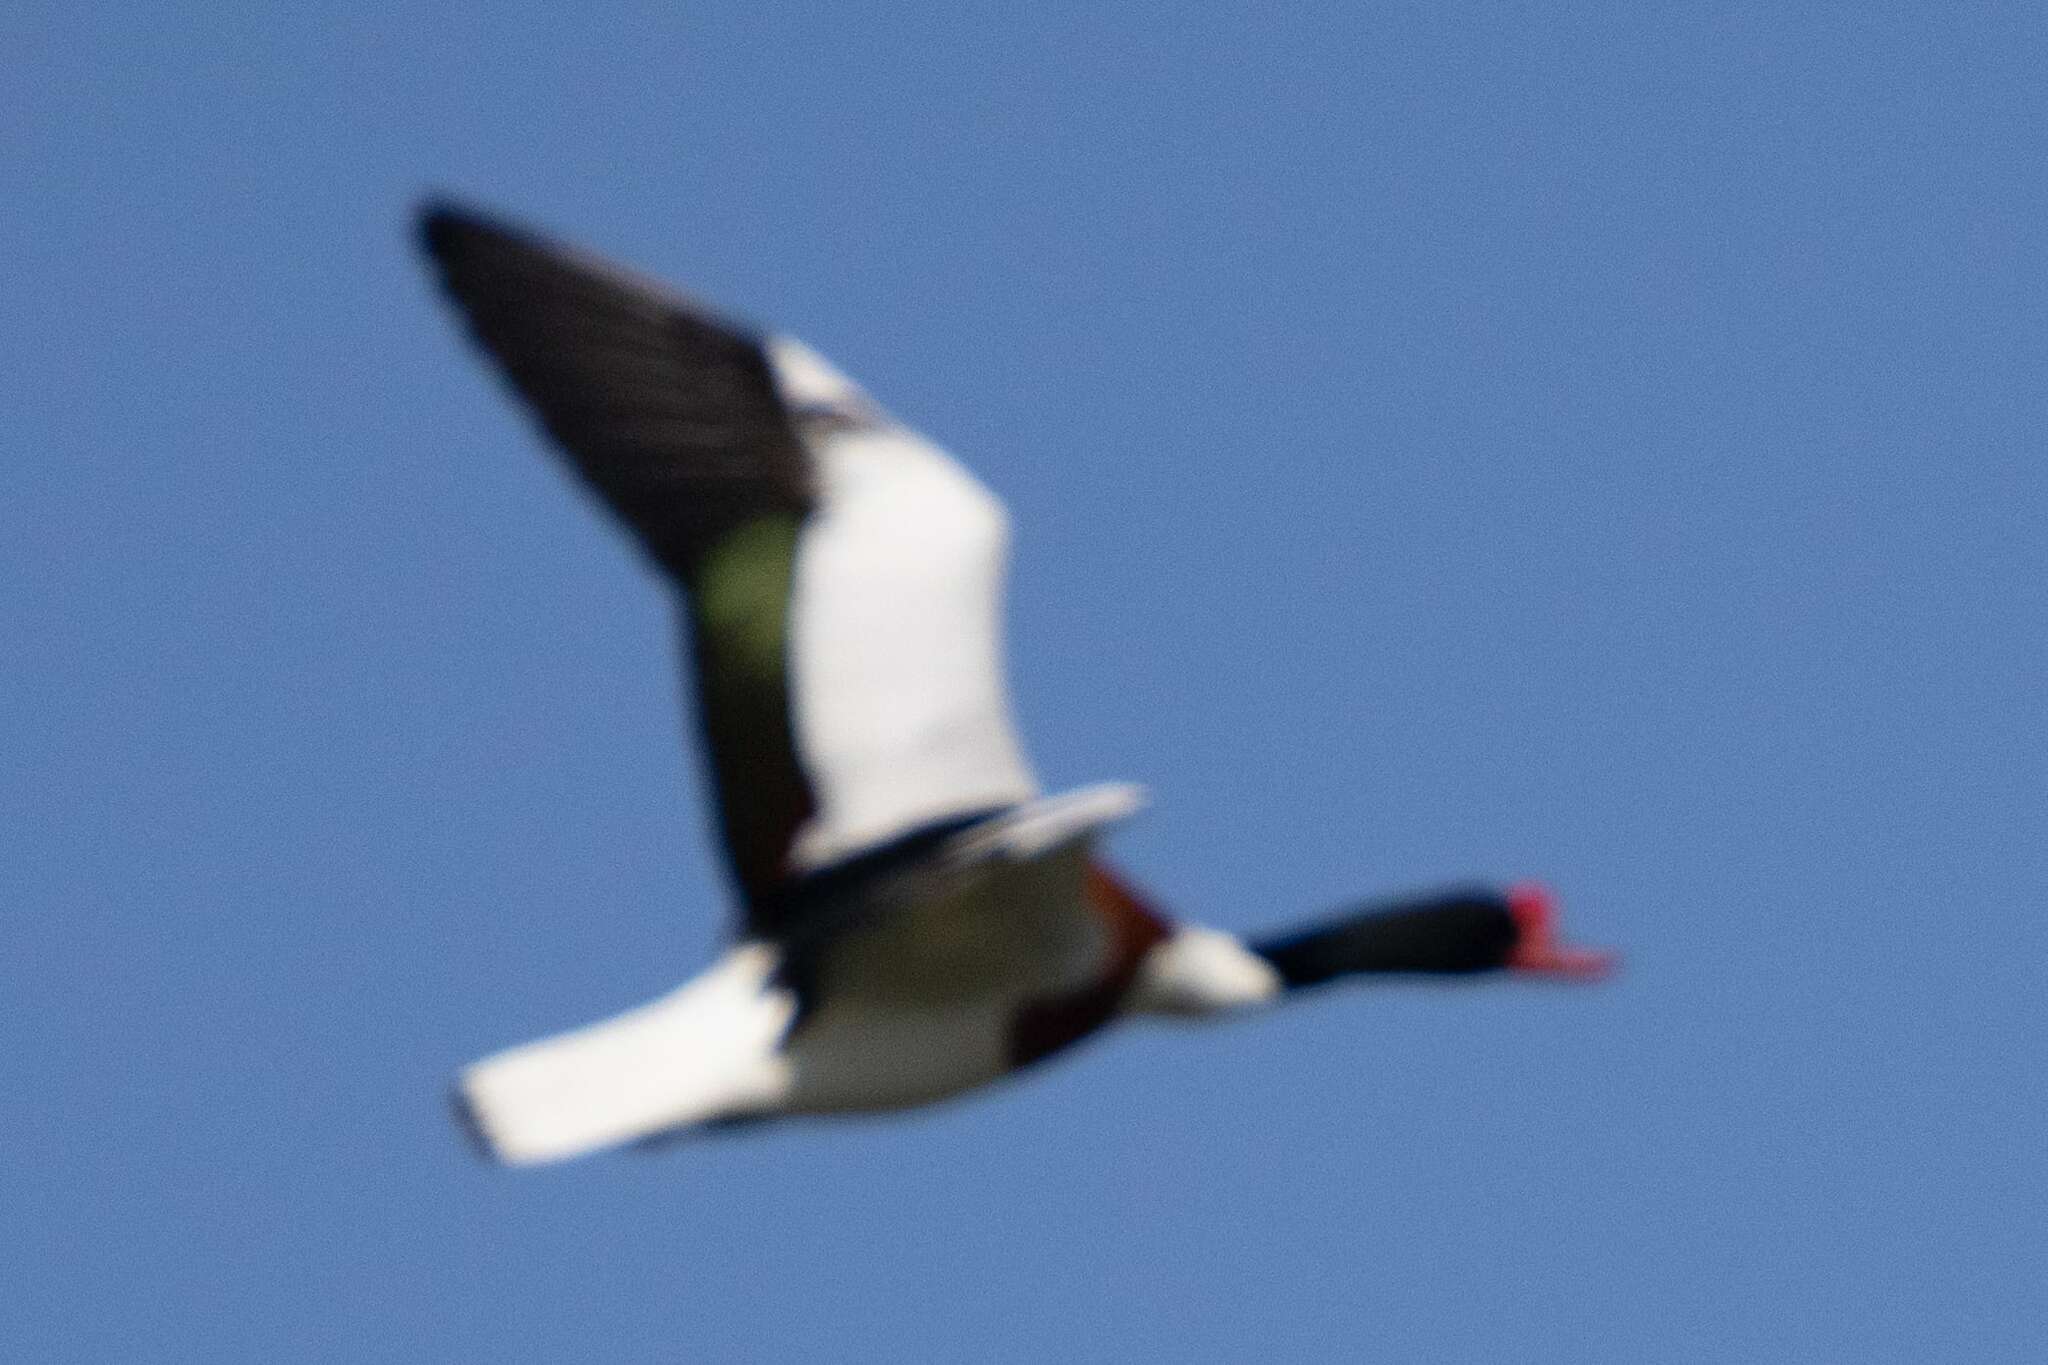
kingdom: Animalia
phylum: Chordata
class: Aves
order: Anseriformes
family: Anatidae
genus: Tadorna
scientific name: Tadorna tadorna
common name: Common shelduck
